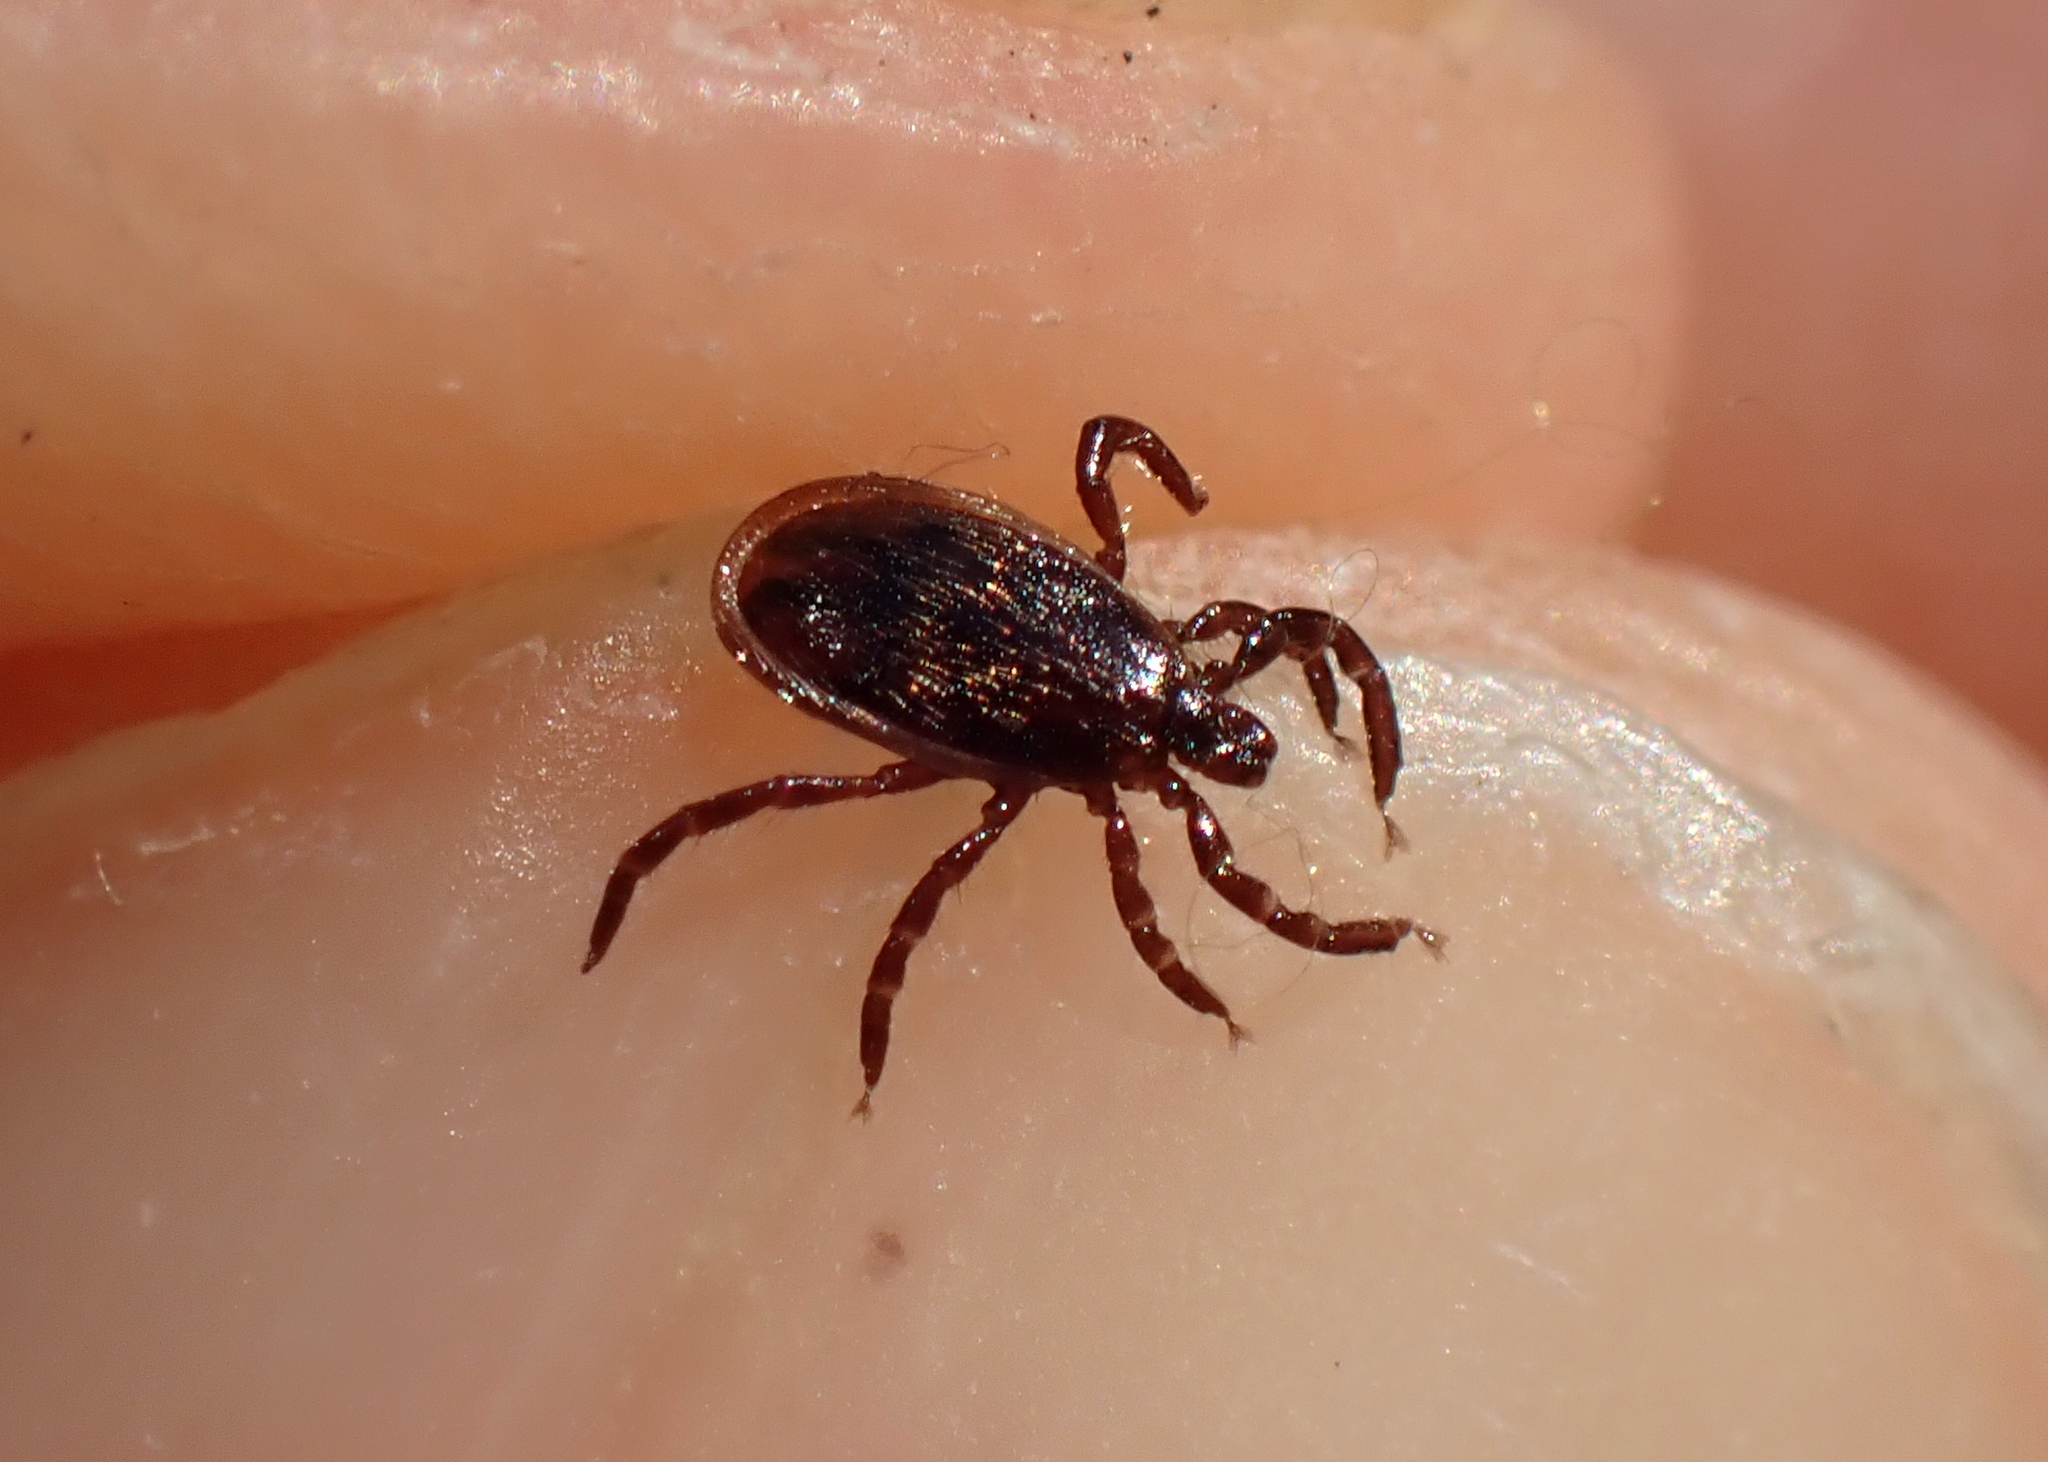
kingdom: Animalia
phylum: Arthropoda
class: Arachnida
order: Ixodida
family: Ixodidae
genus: Ixodes
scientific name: Ixodes scapularis
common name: Black legged tick
